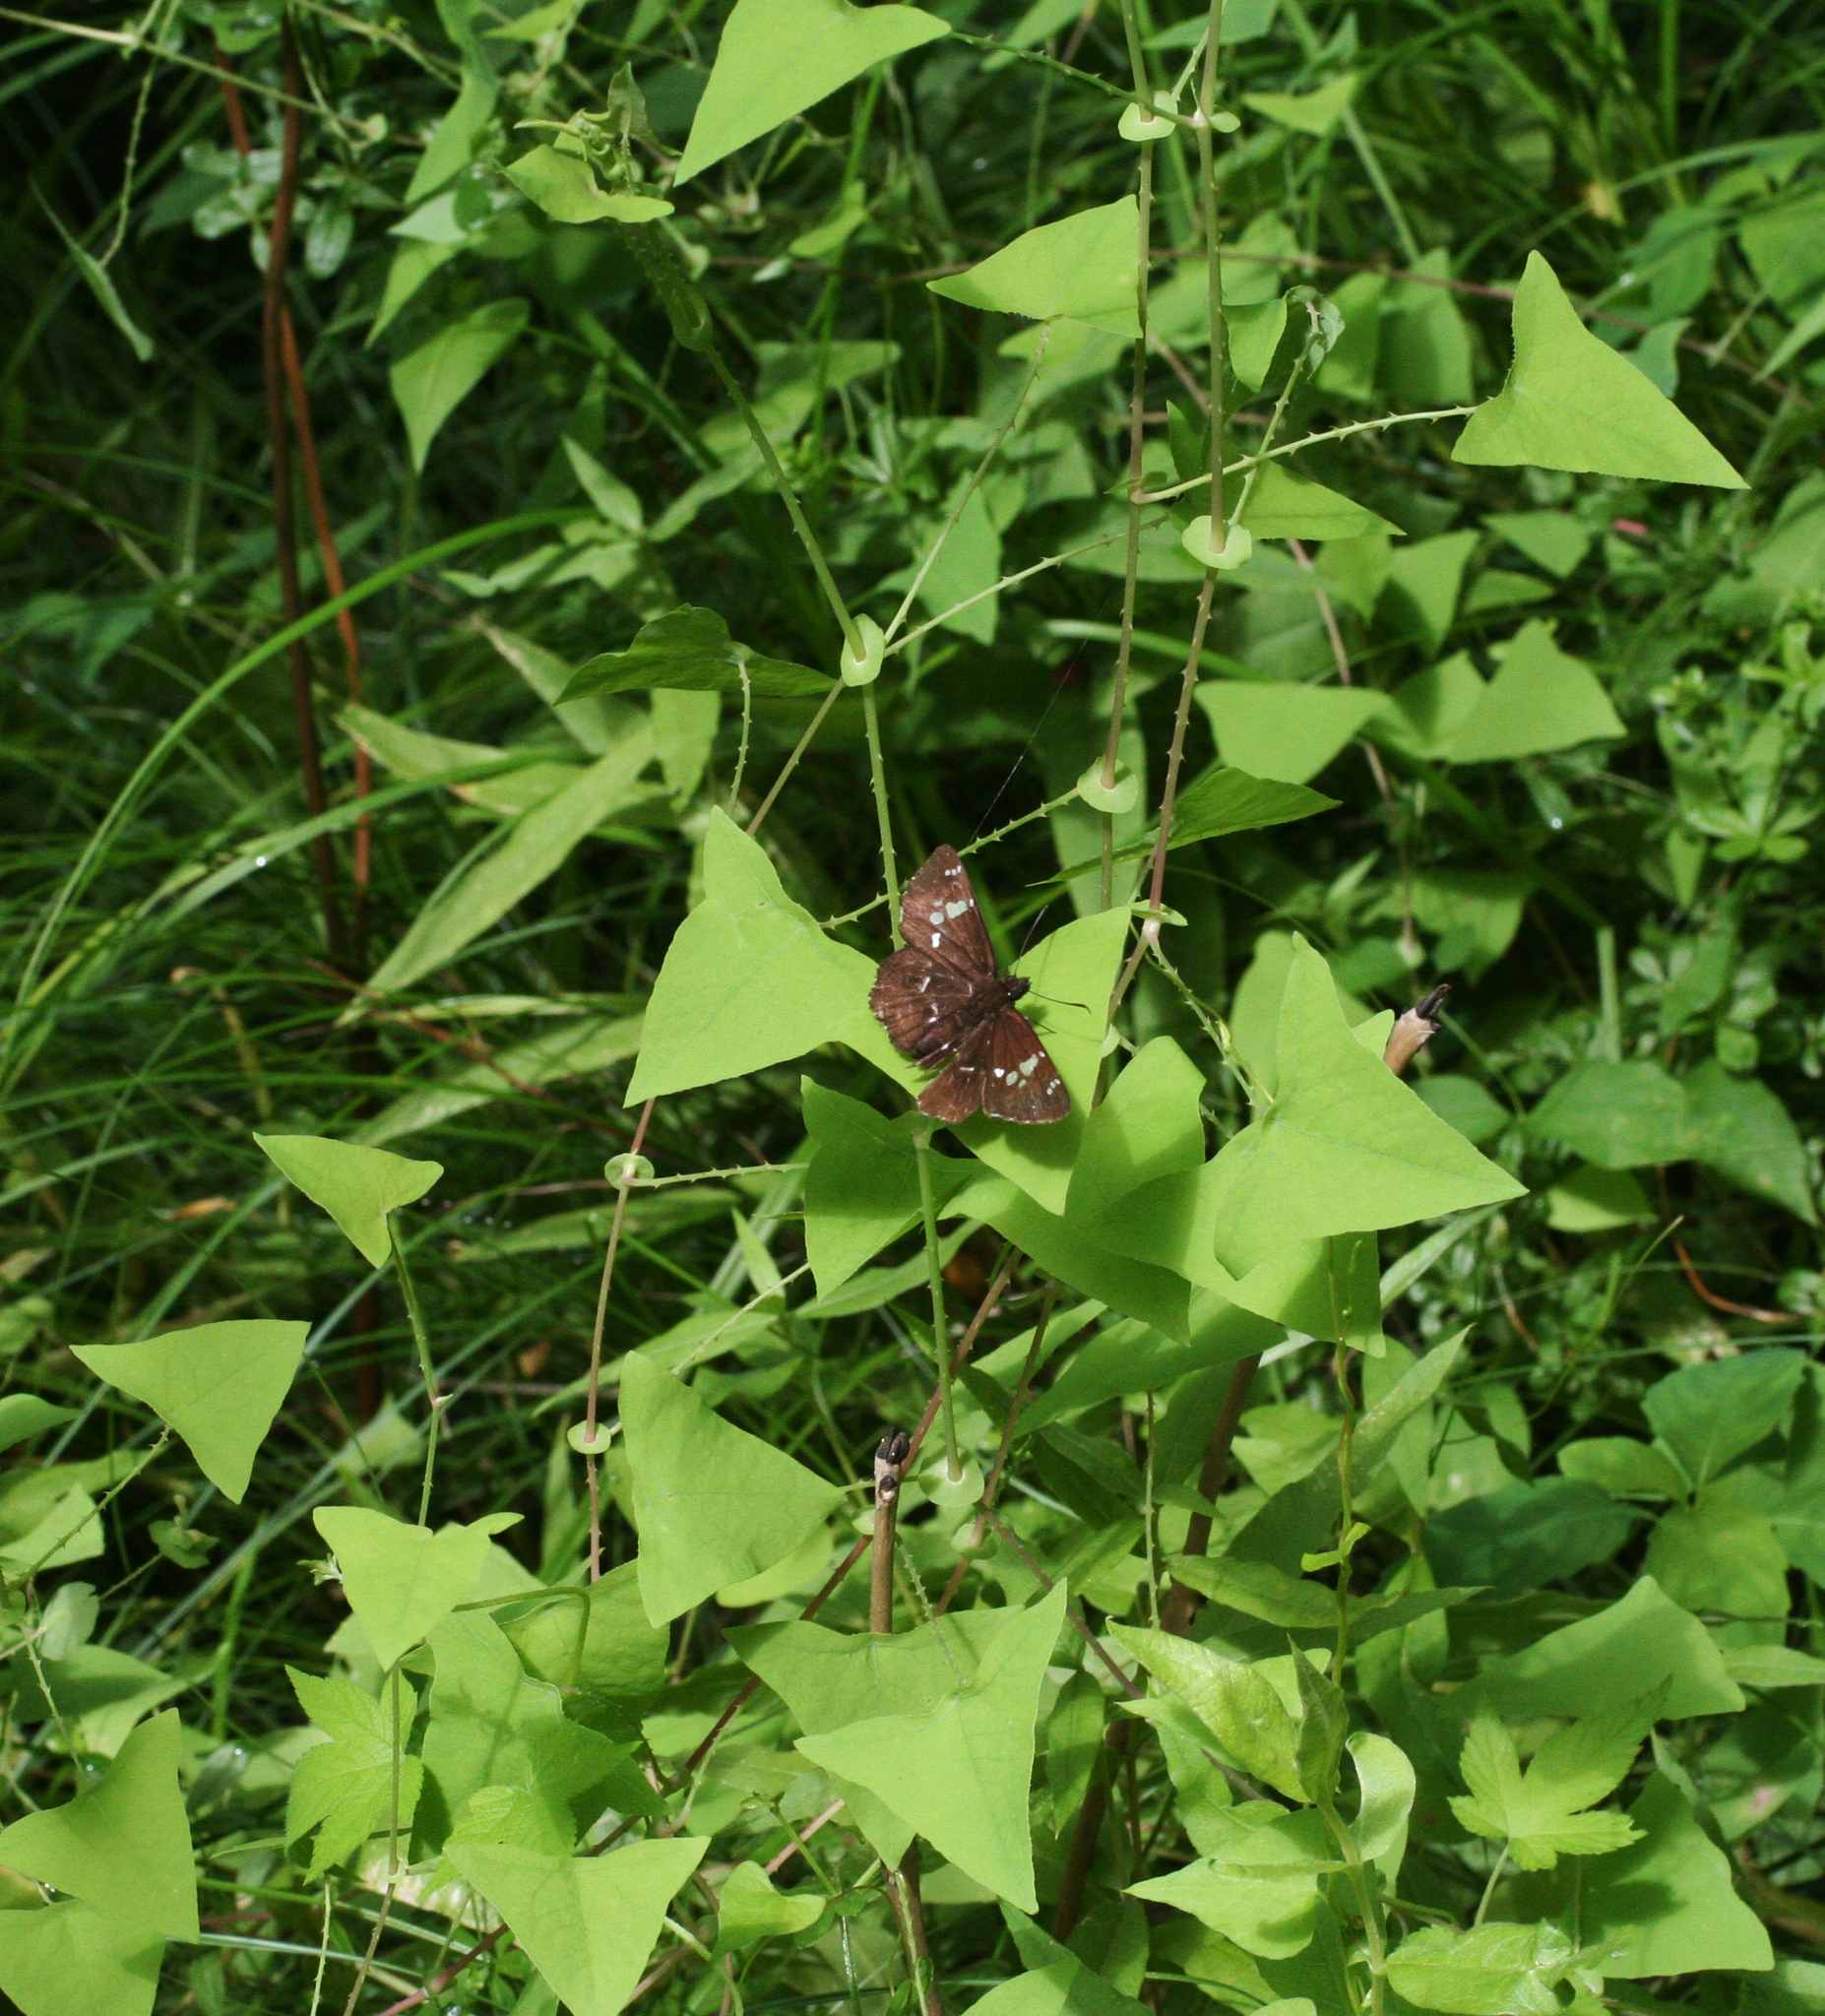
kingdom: Animalia
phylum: Arthropoda
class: Insecta
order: Lepidoptera
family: Hesperiidae
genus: Daimio
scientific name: Daimio tethys
